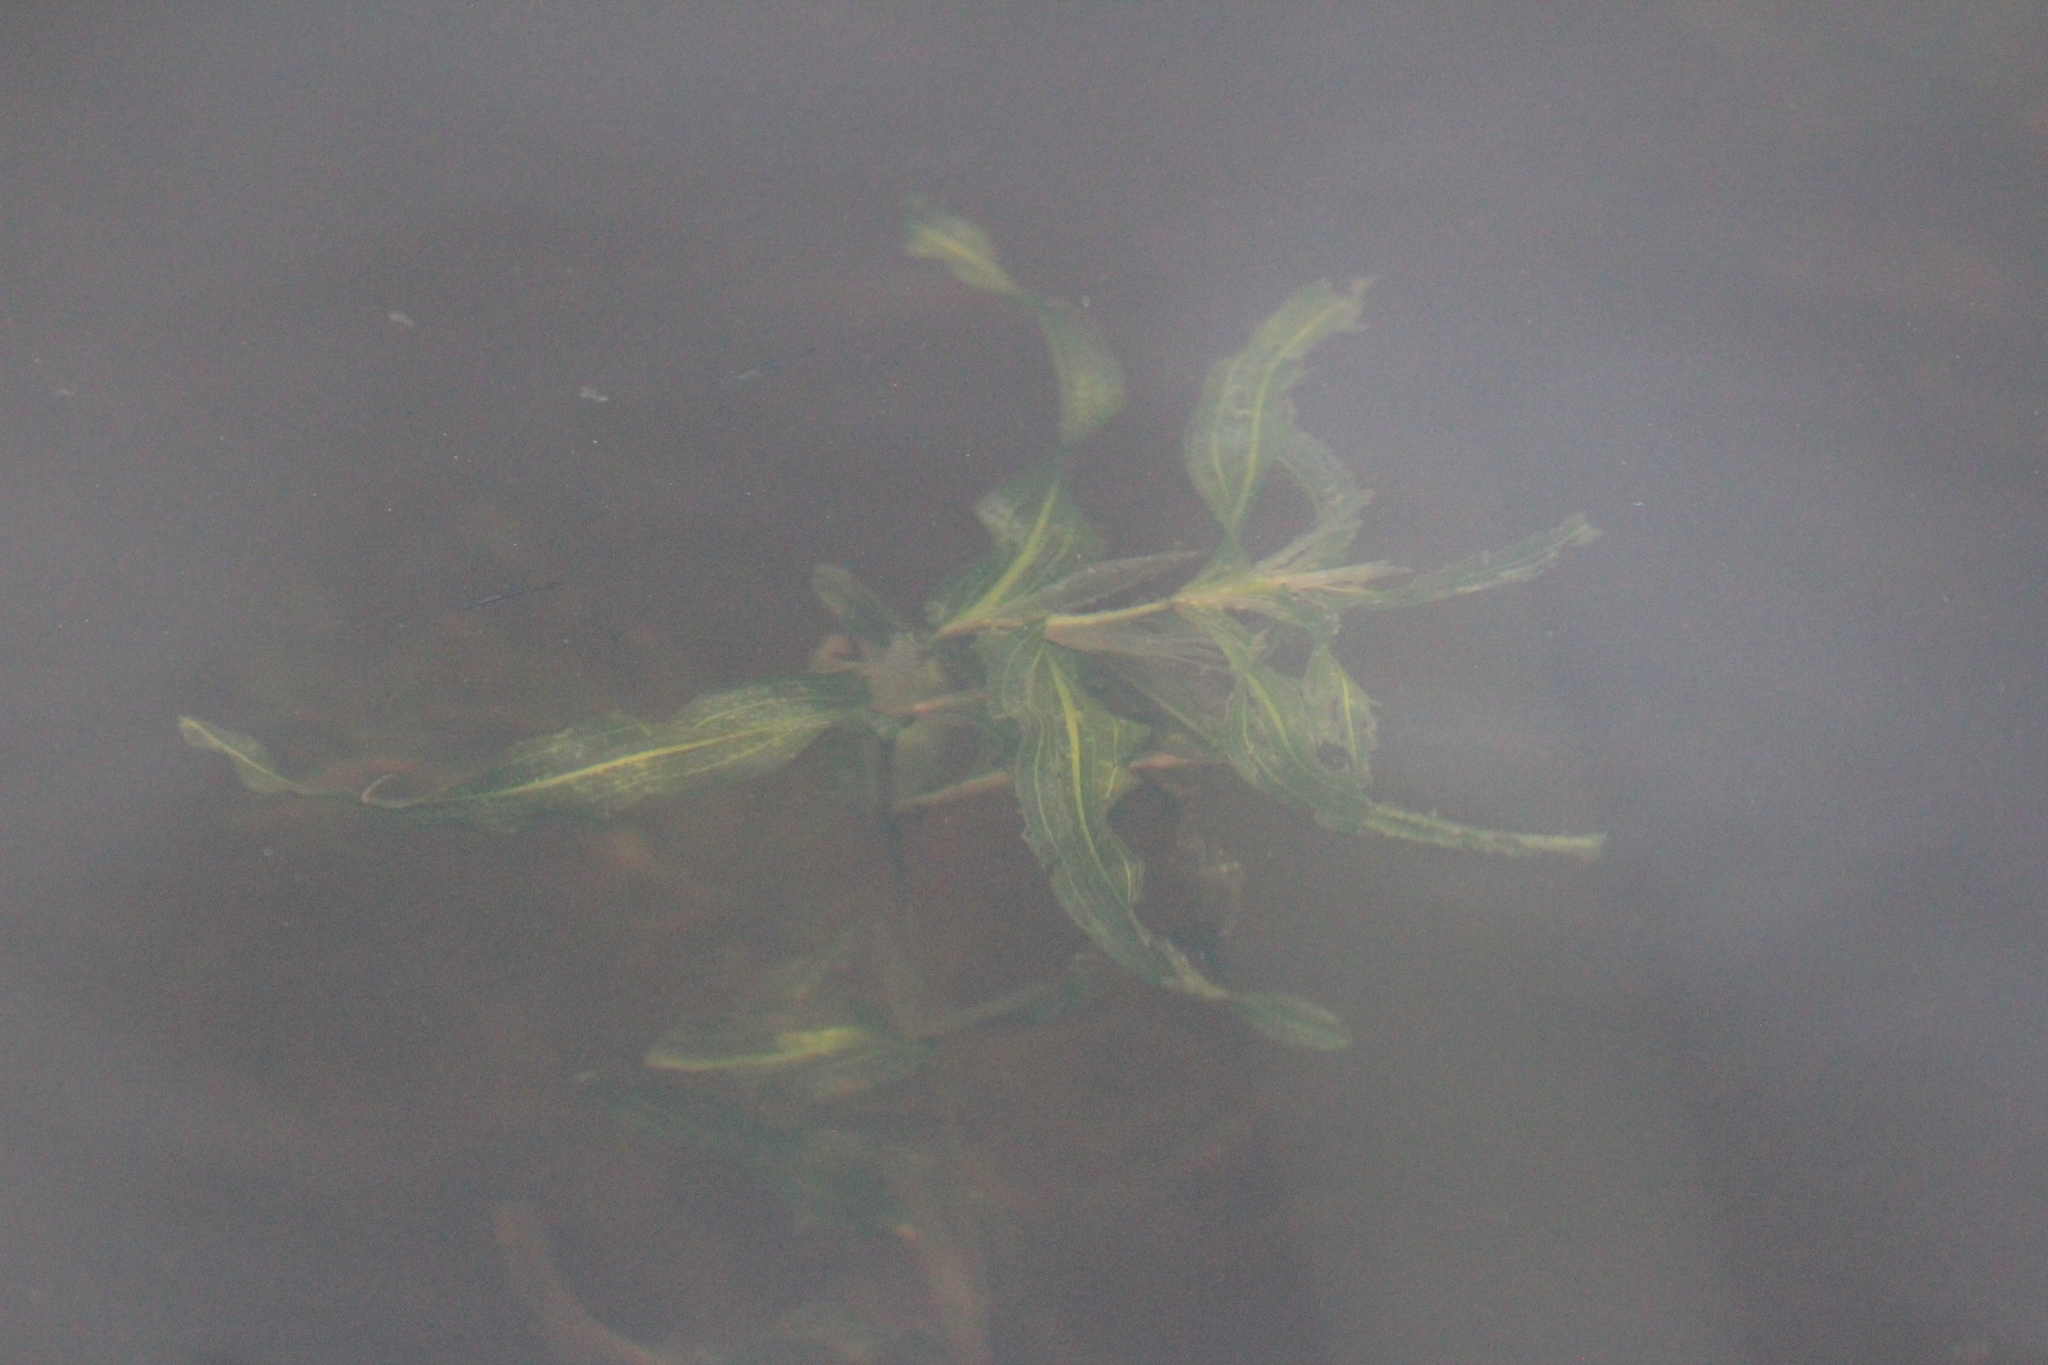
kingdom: Plantae
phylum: Tracheophyta
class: Liliopsida
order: Alismatales
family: Potamogetonaceae
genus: Potamogeton
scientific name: Potamogeton praelongus
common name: Long-stalked pondweed
